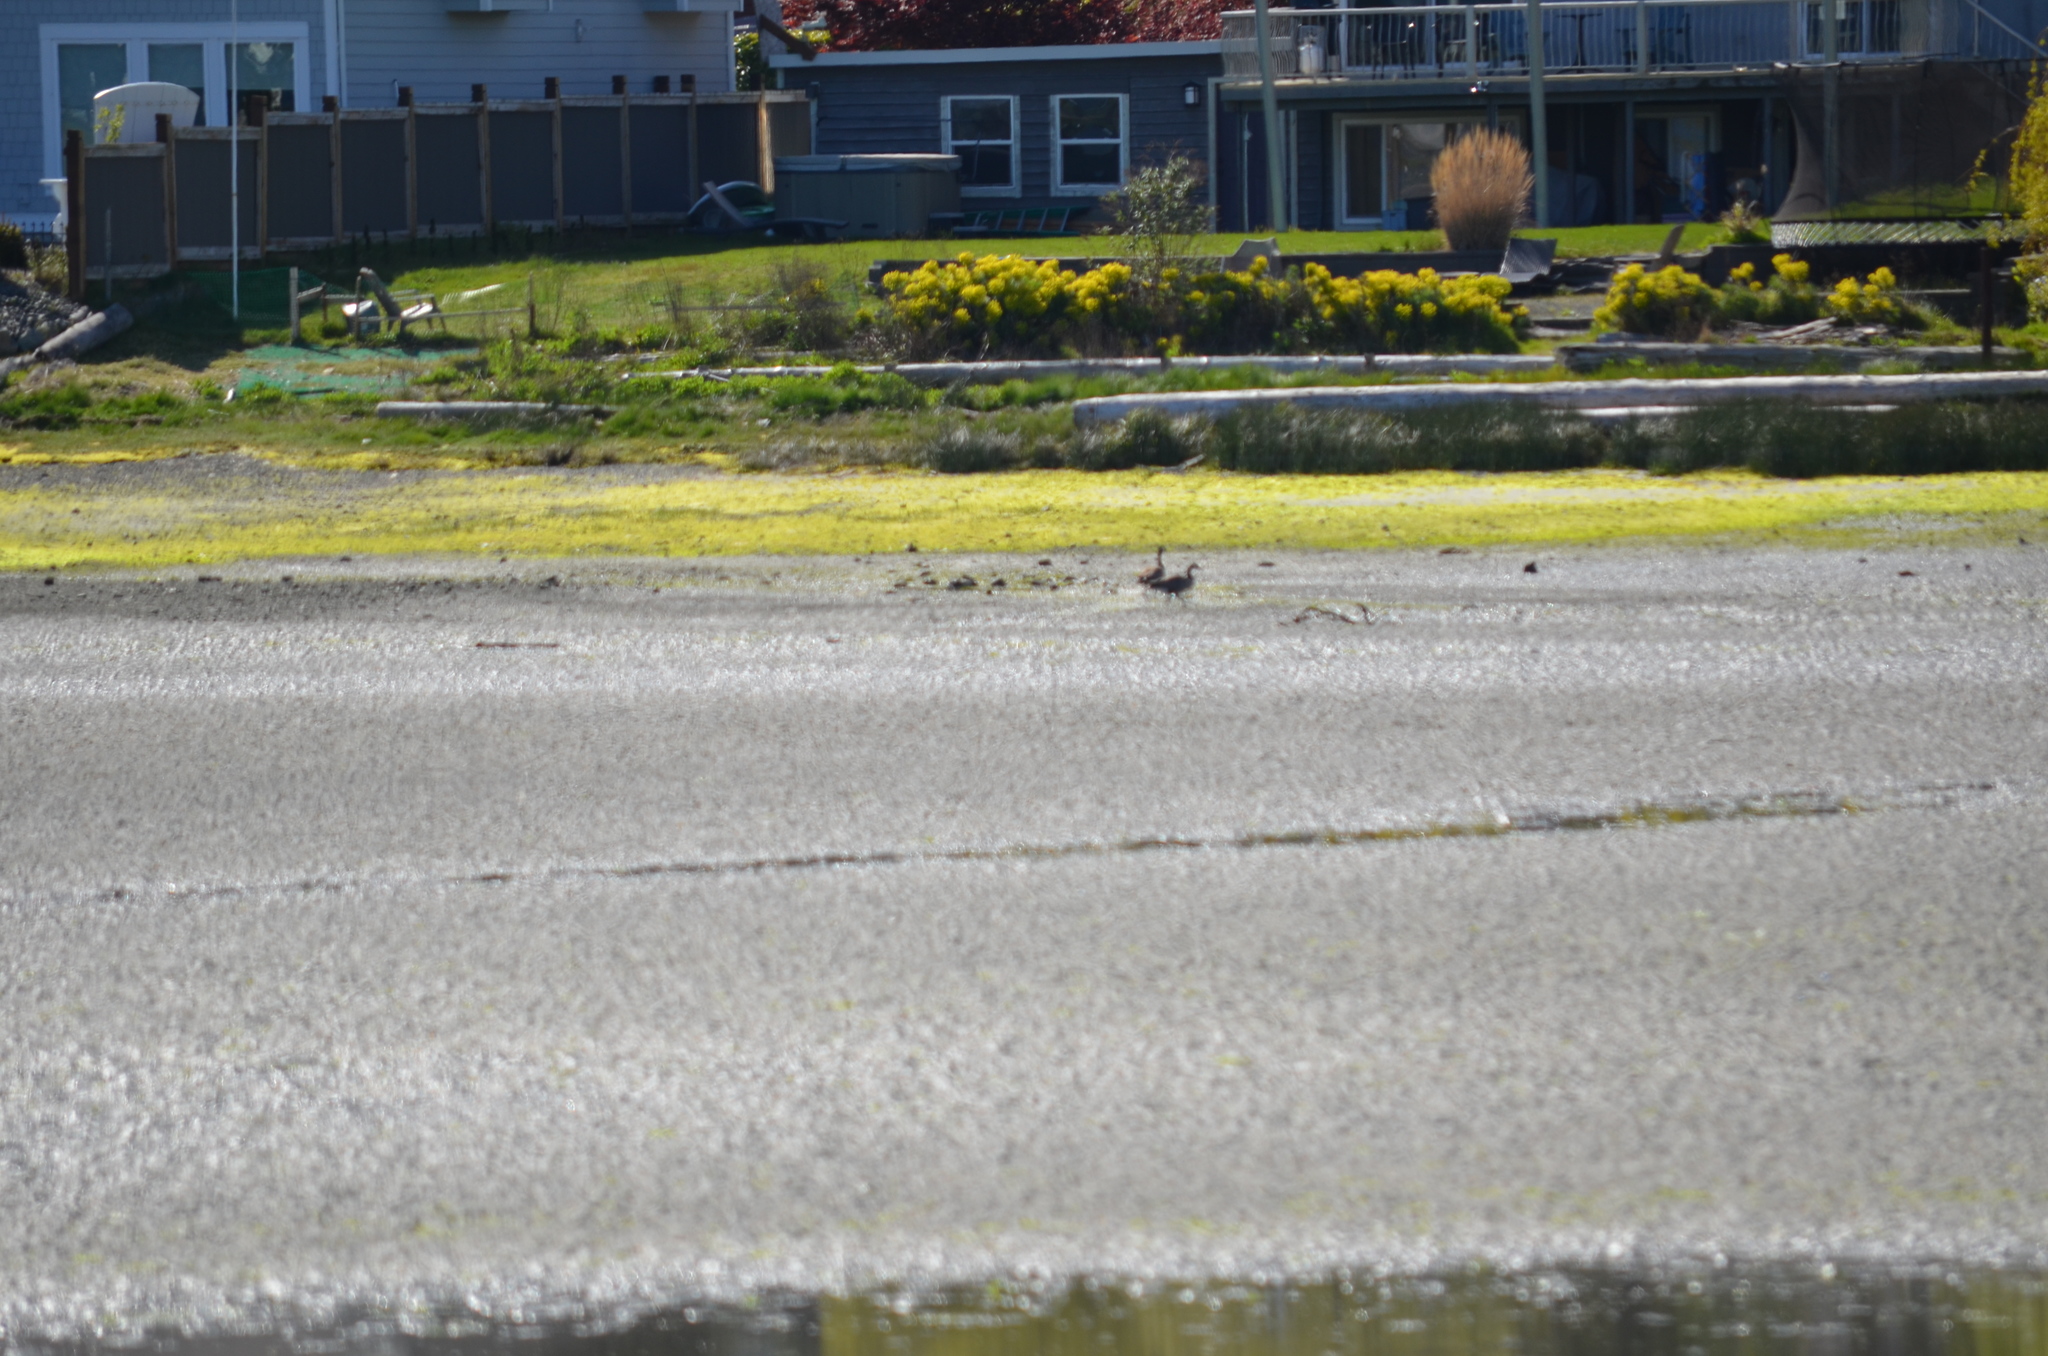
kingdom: Animalia
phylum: Chordata
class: Aves
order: Anseriformes
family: Anatidae
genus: Branta
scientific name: Branta canadensis
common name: Canada goose
